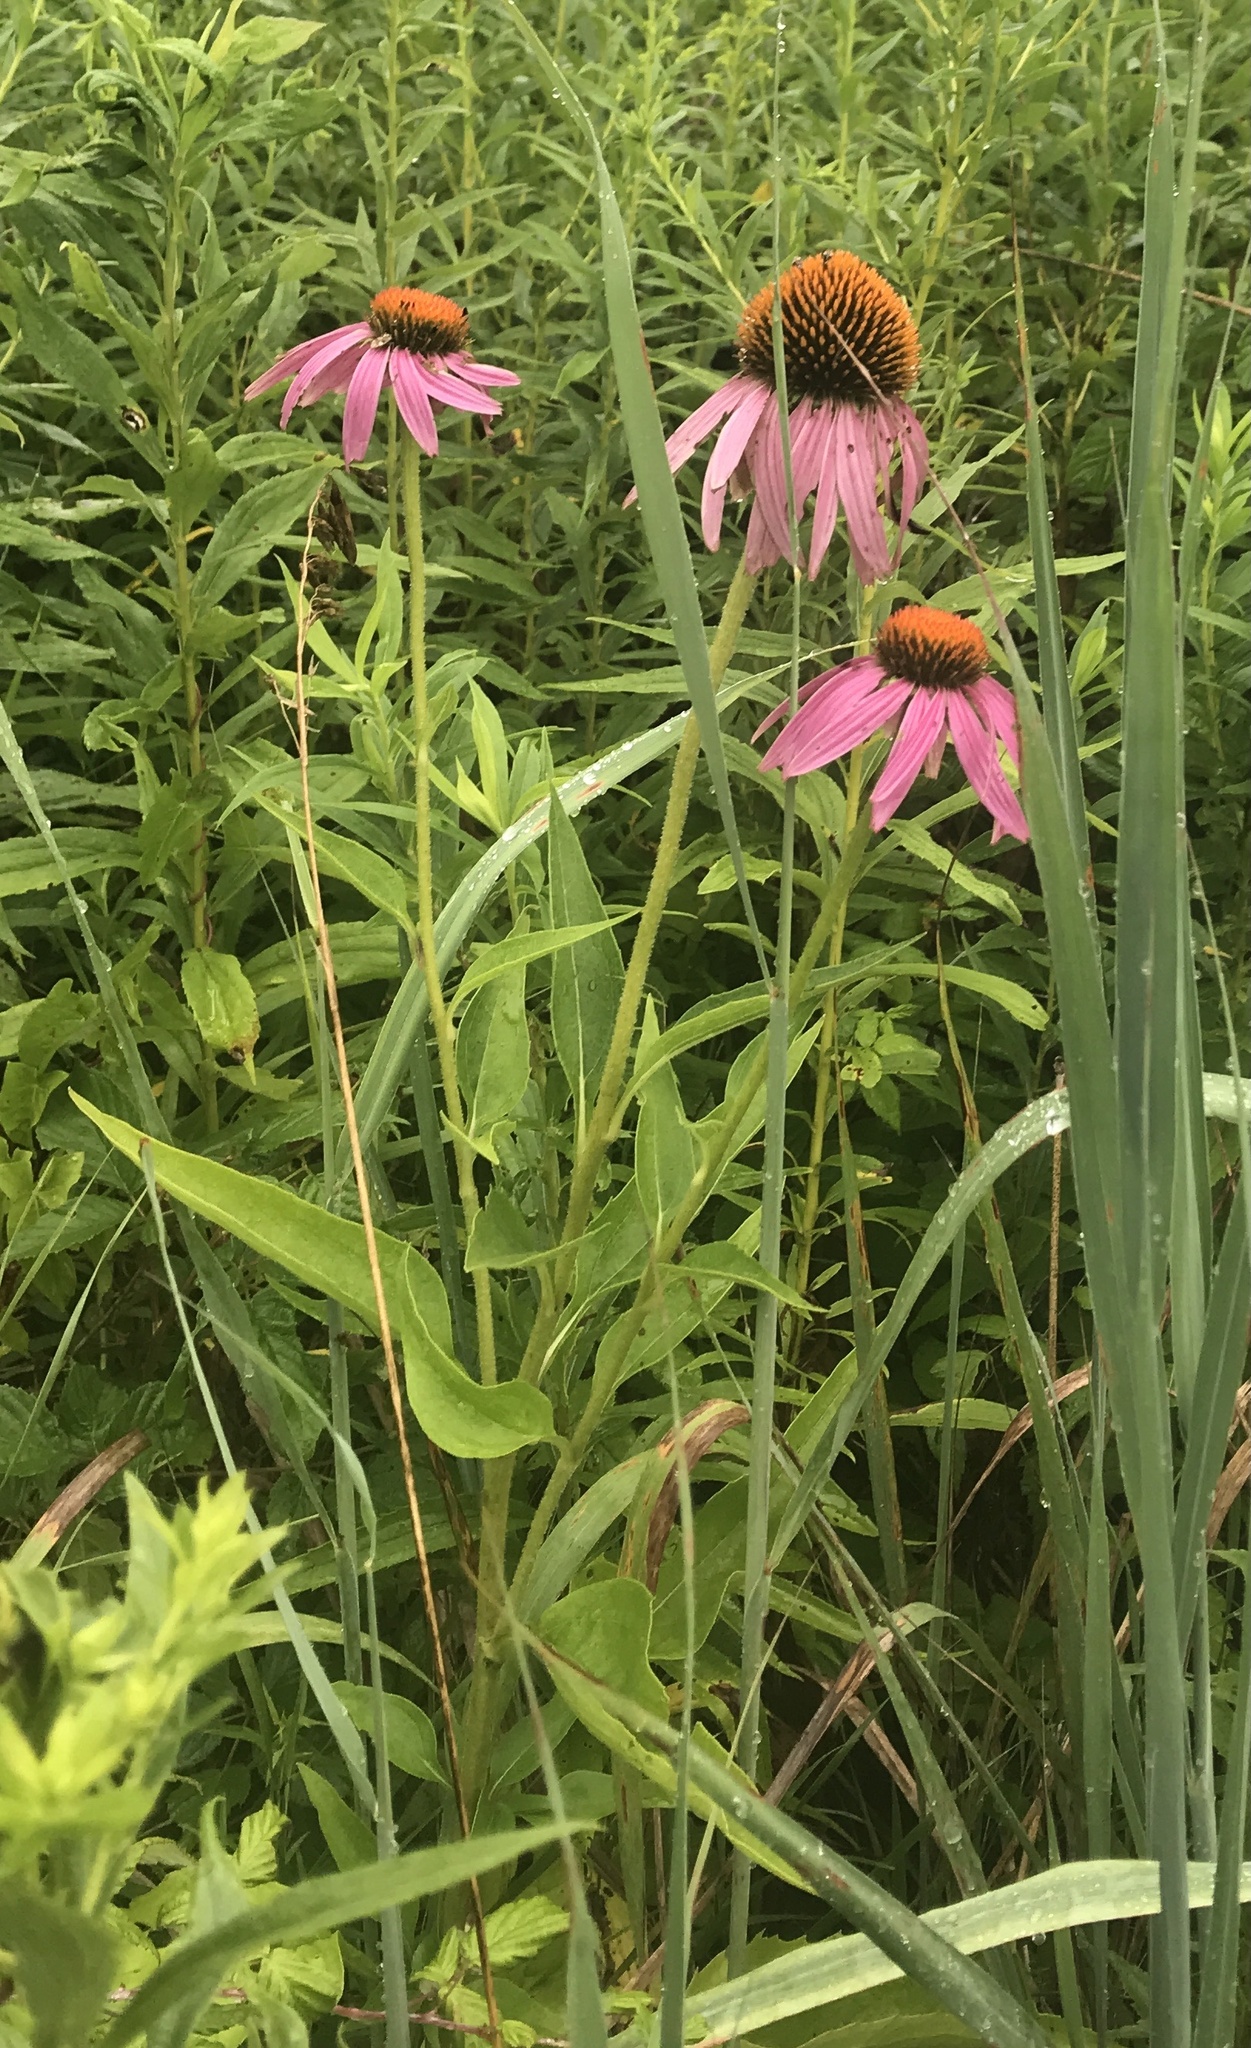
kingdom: Plantae
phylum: Tracheophyta
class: Magnoliopsida
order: Asterales
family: Asteraceae
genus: Echinacea
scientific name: Echinacea purpurea
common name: Broad-leaved purple coneflower
